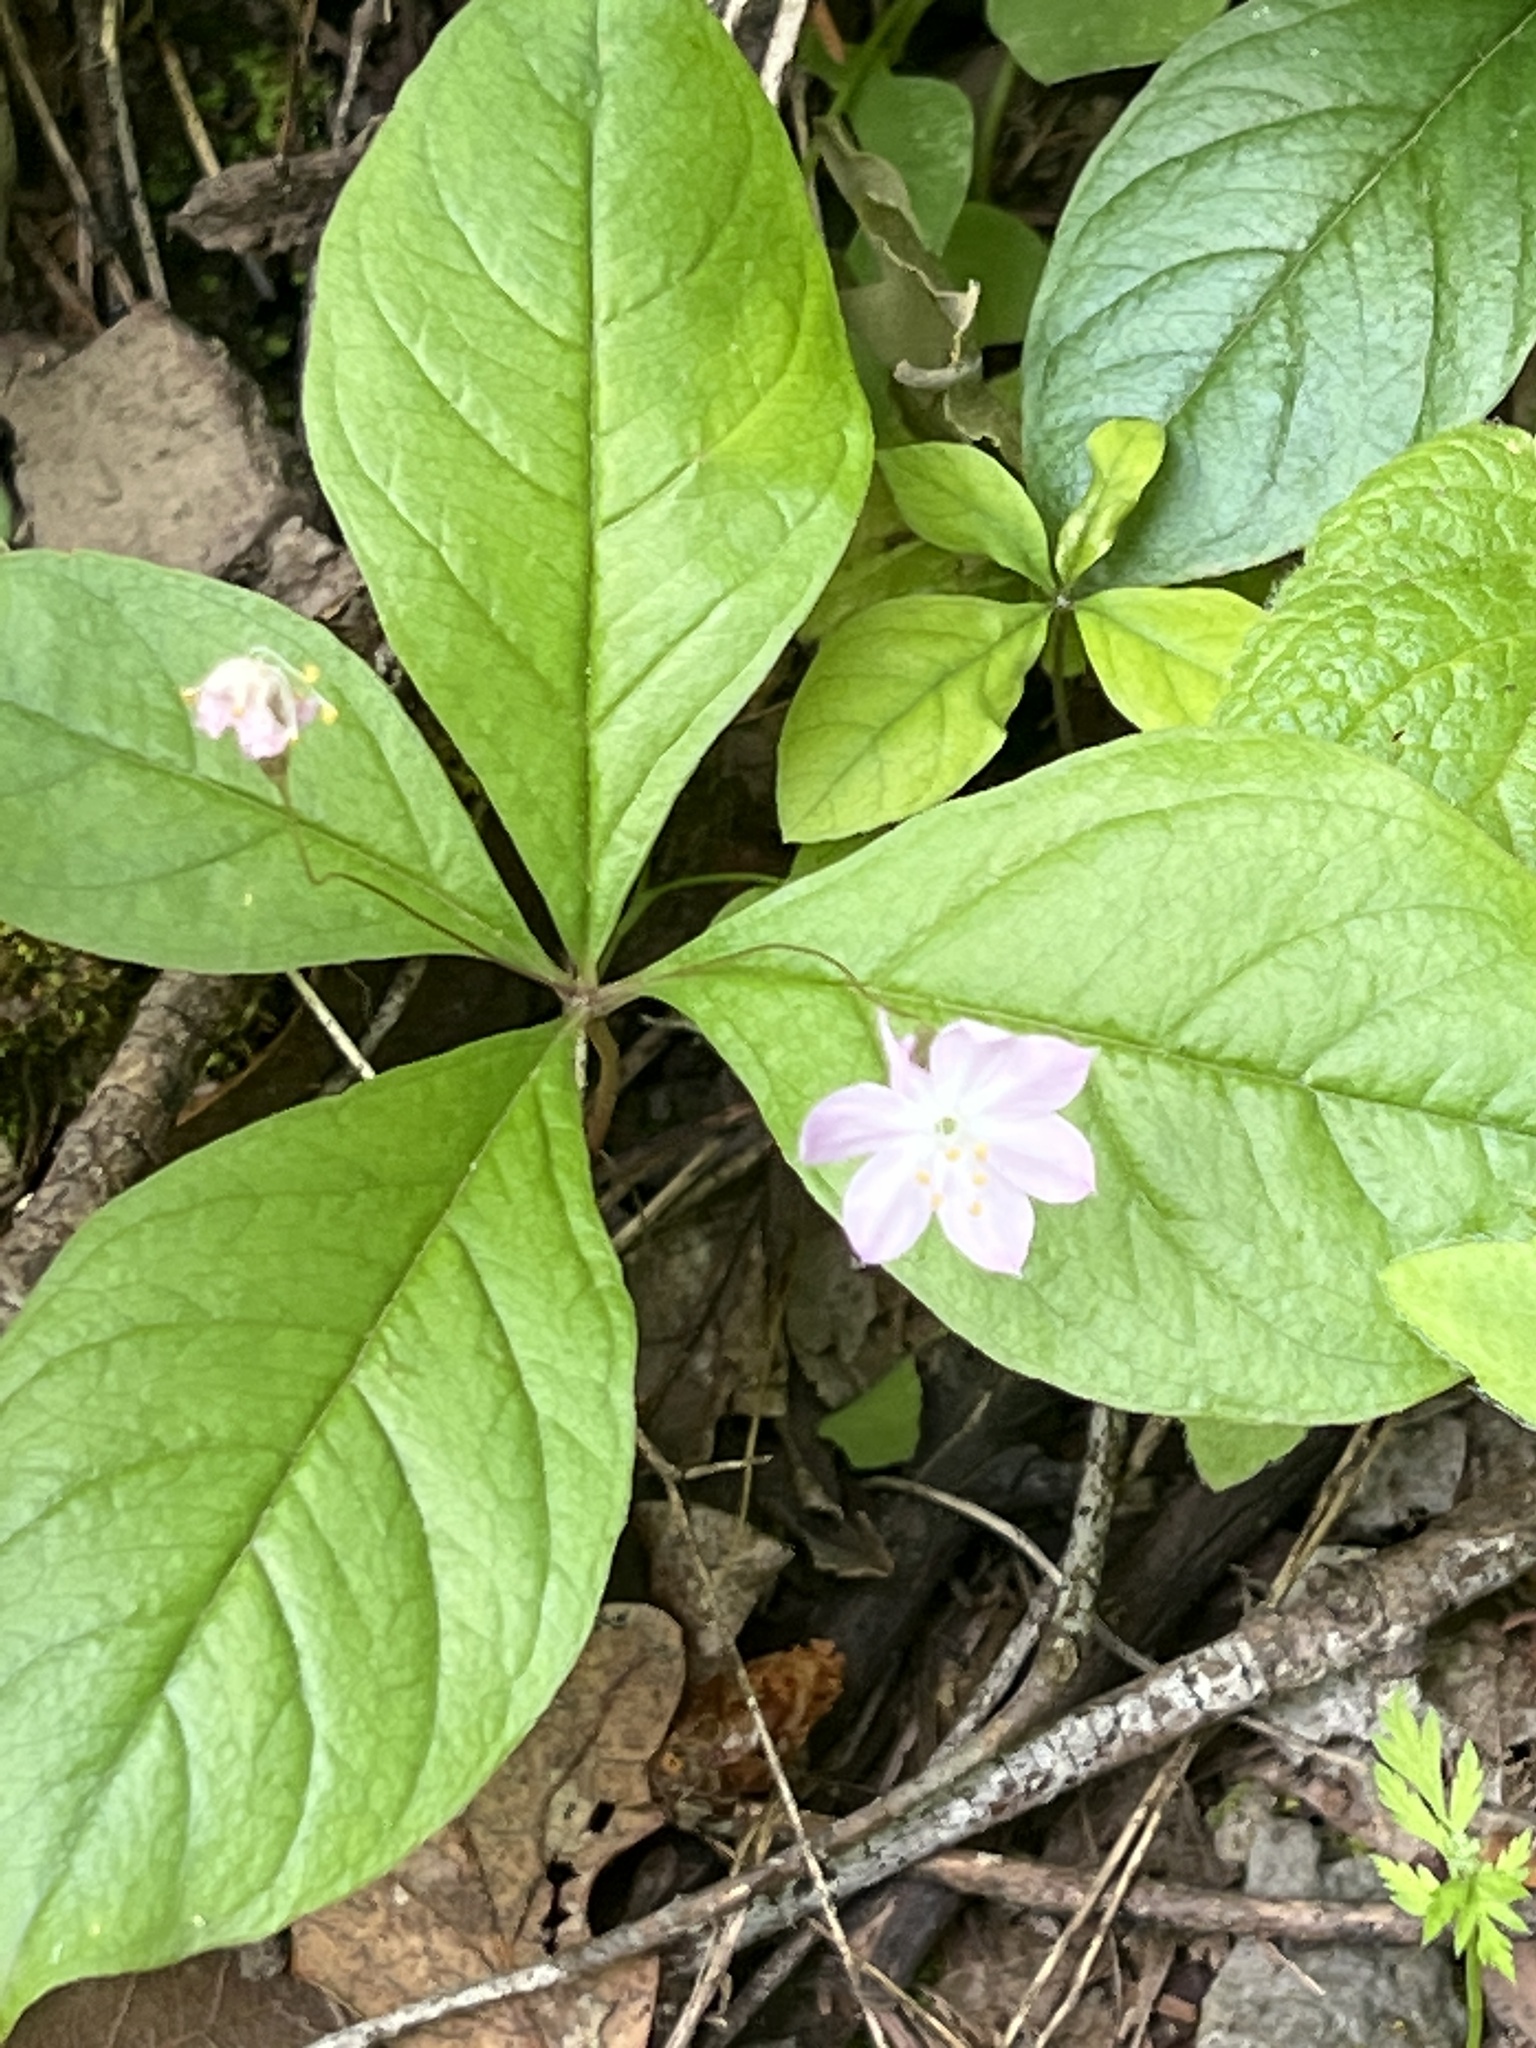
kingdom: Plantae
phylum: Tracheophyta
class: Magnoliopsida
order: Ericales
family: Primulaceae
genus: Lysimachia
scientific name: Lysimachia latifolia
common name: Pacific starflower
